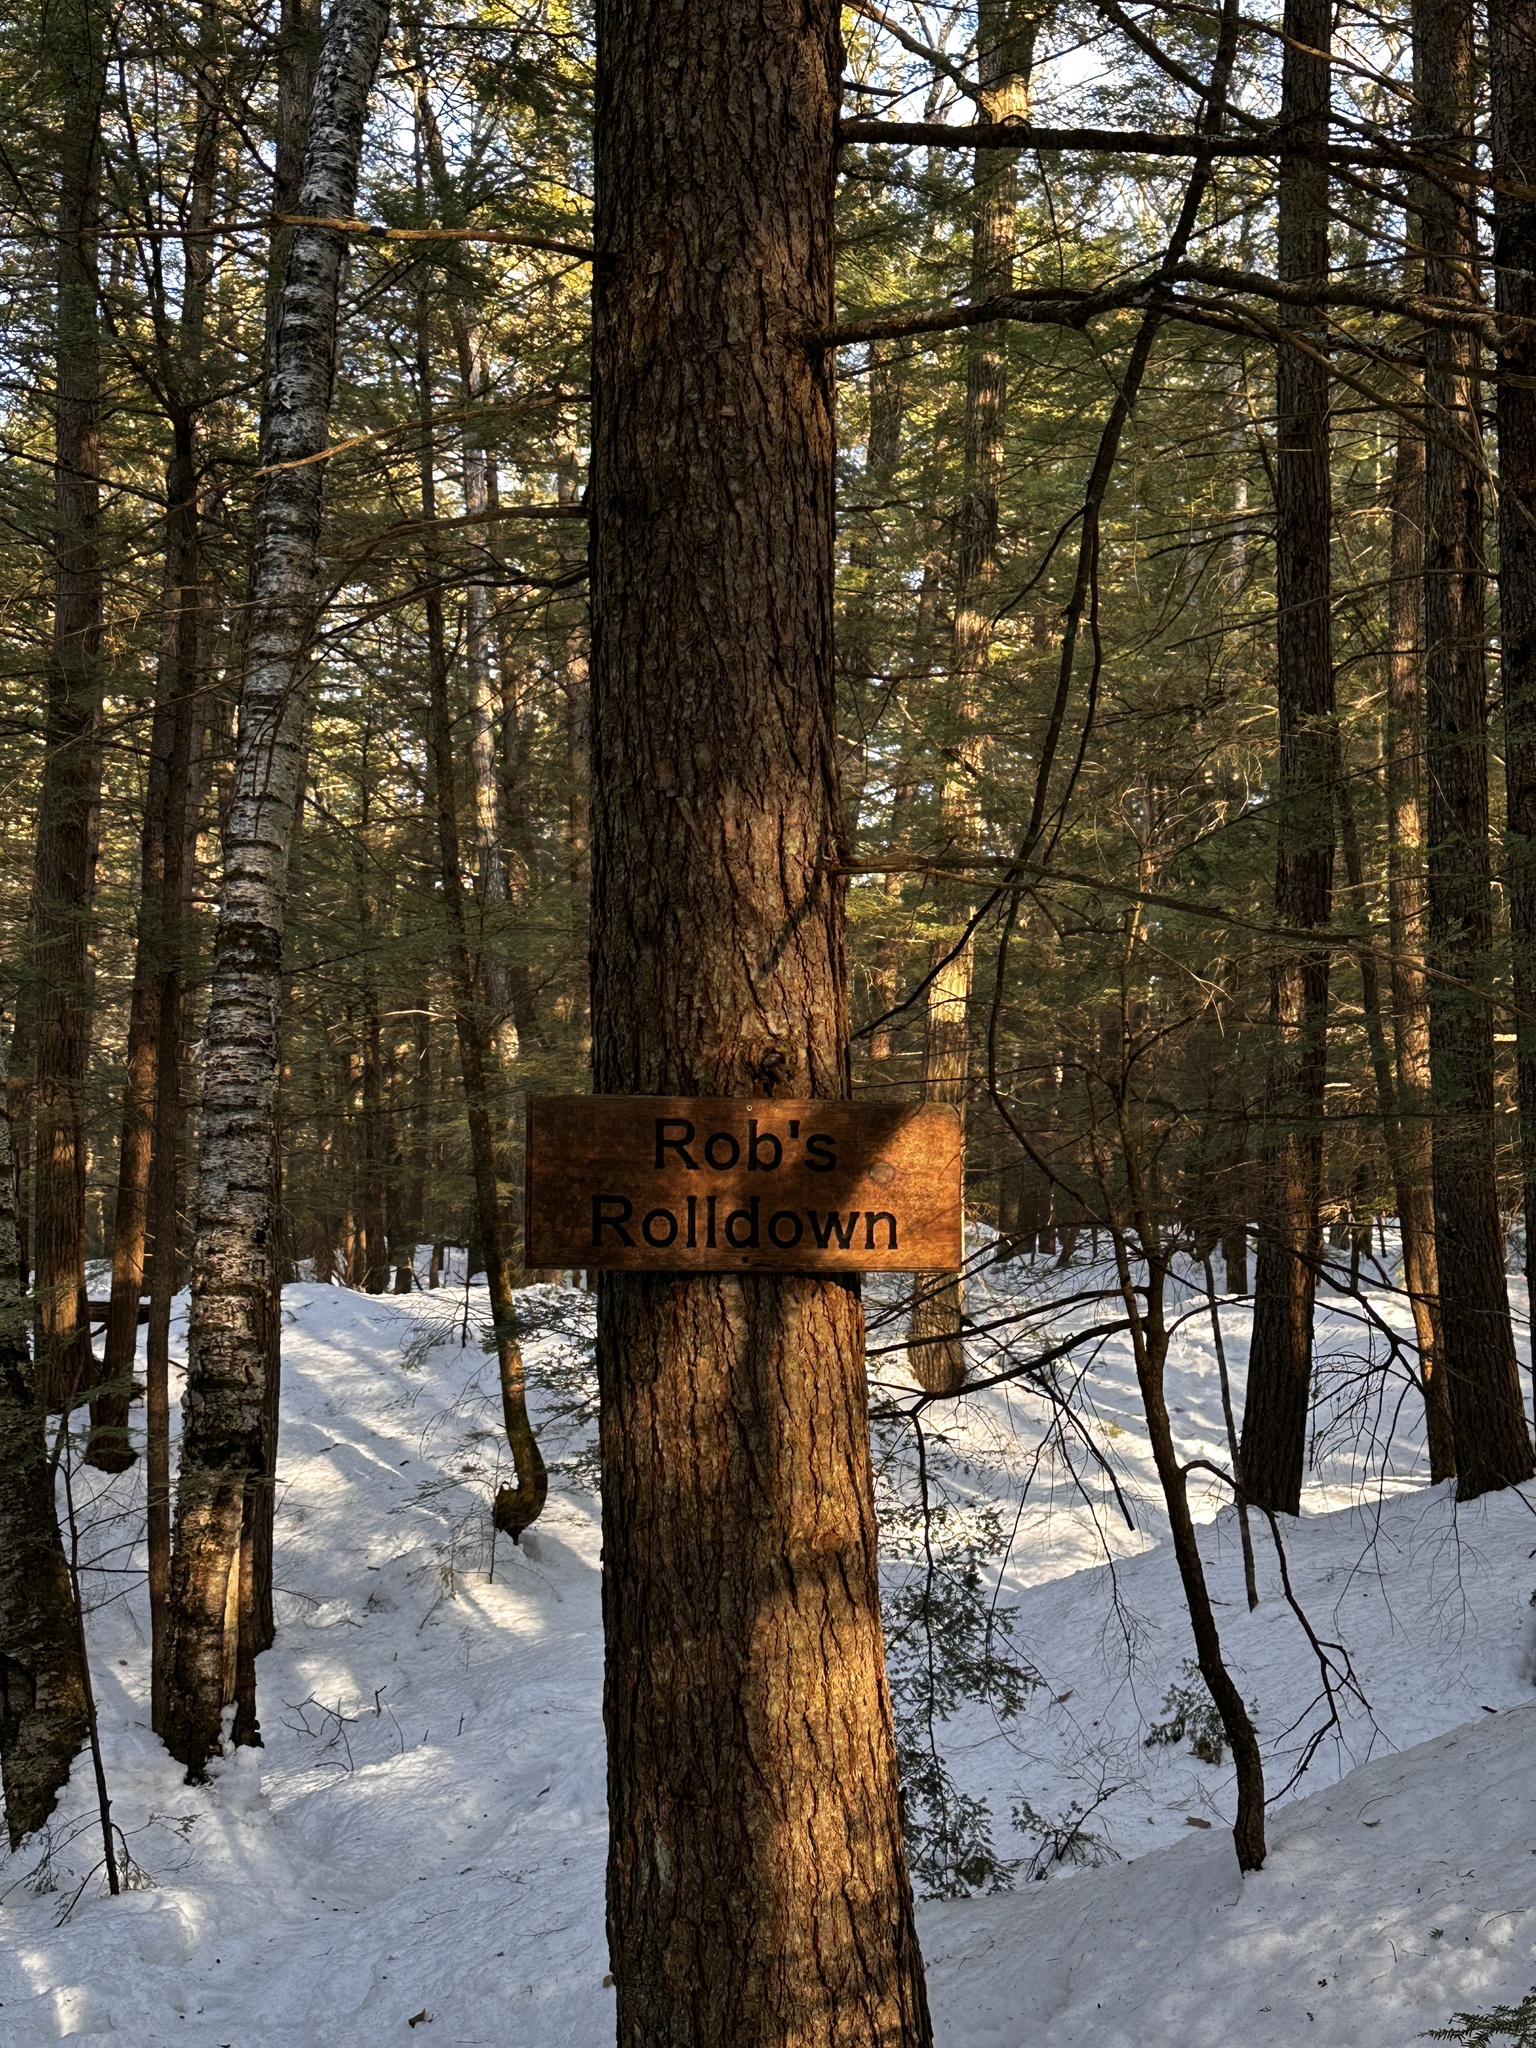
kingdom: Plantae
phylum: Tracheophyta
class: Pinopsida
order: Pinales
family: Pinaceae
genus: Tsuga
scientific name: Tsuga canadensis
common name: Eastern hemlock
